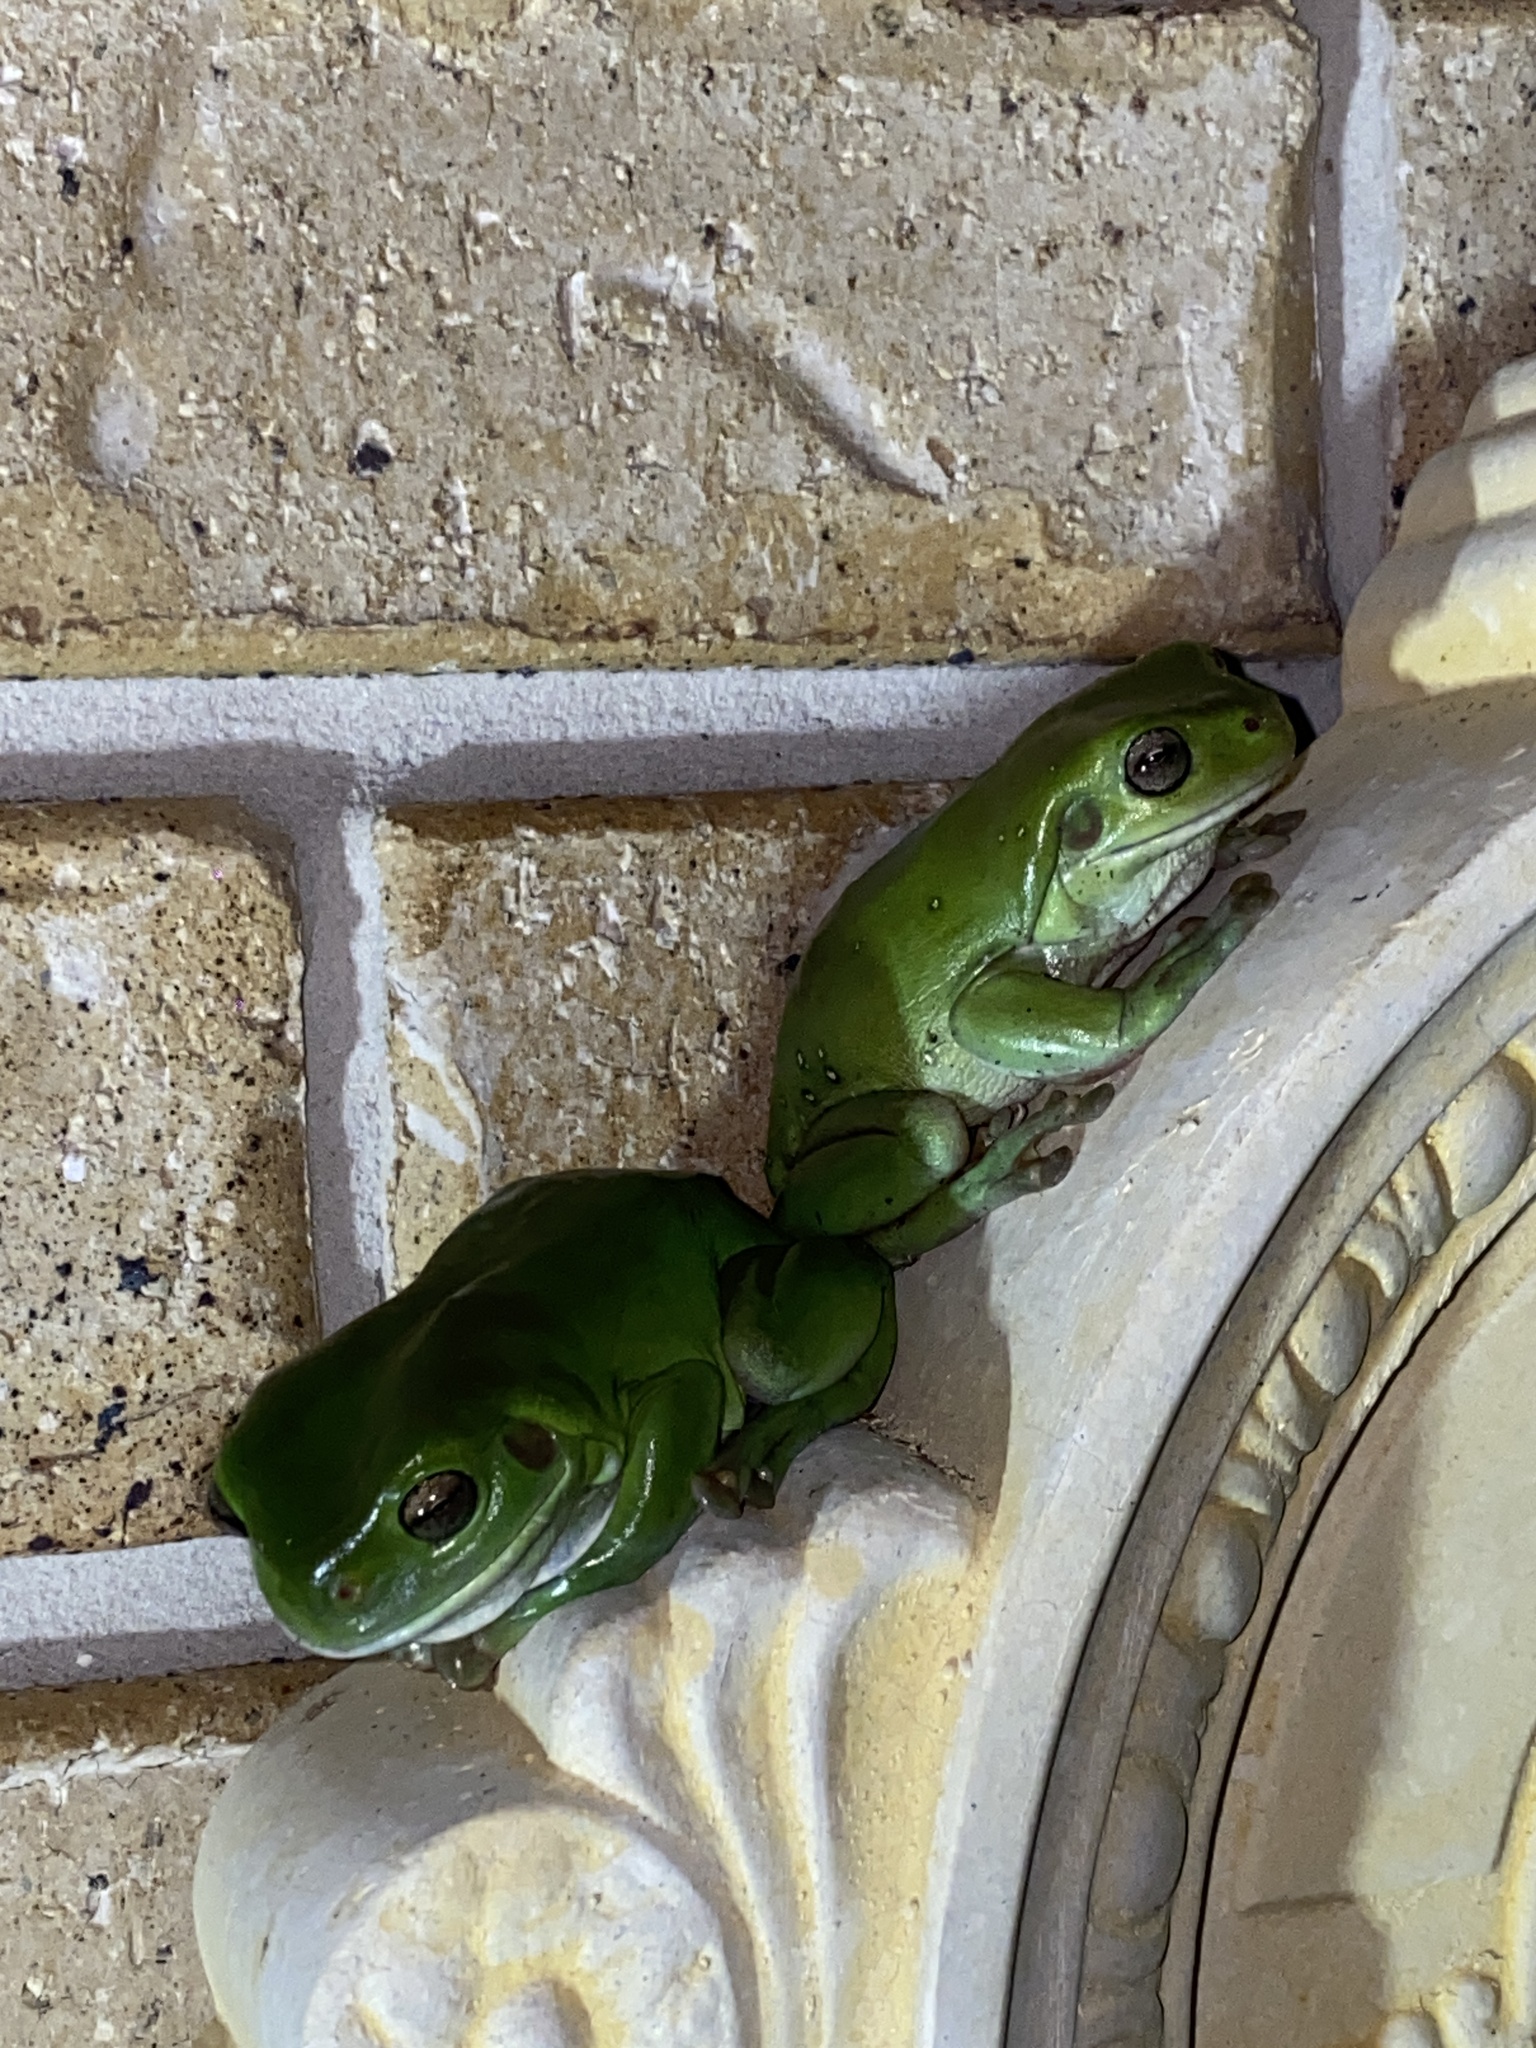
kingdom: Animalia
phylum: Chordata
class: Amphibia
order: Anura
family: Pelodryadidae
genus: Ranoidea
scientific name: Ranoidea caerulea
